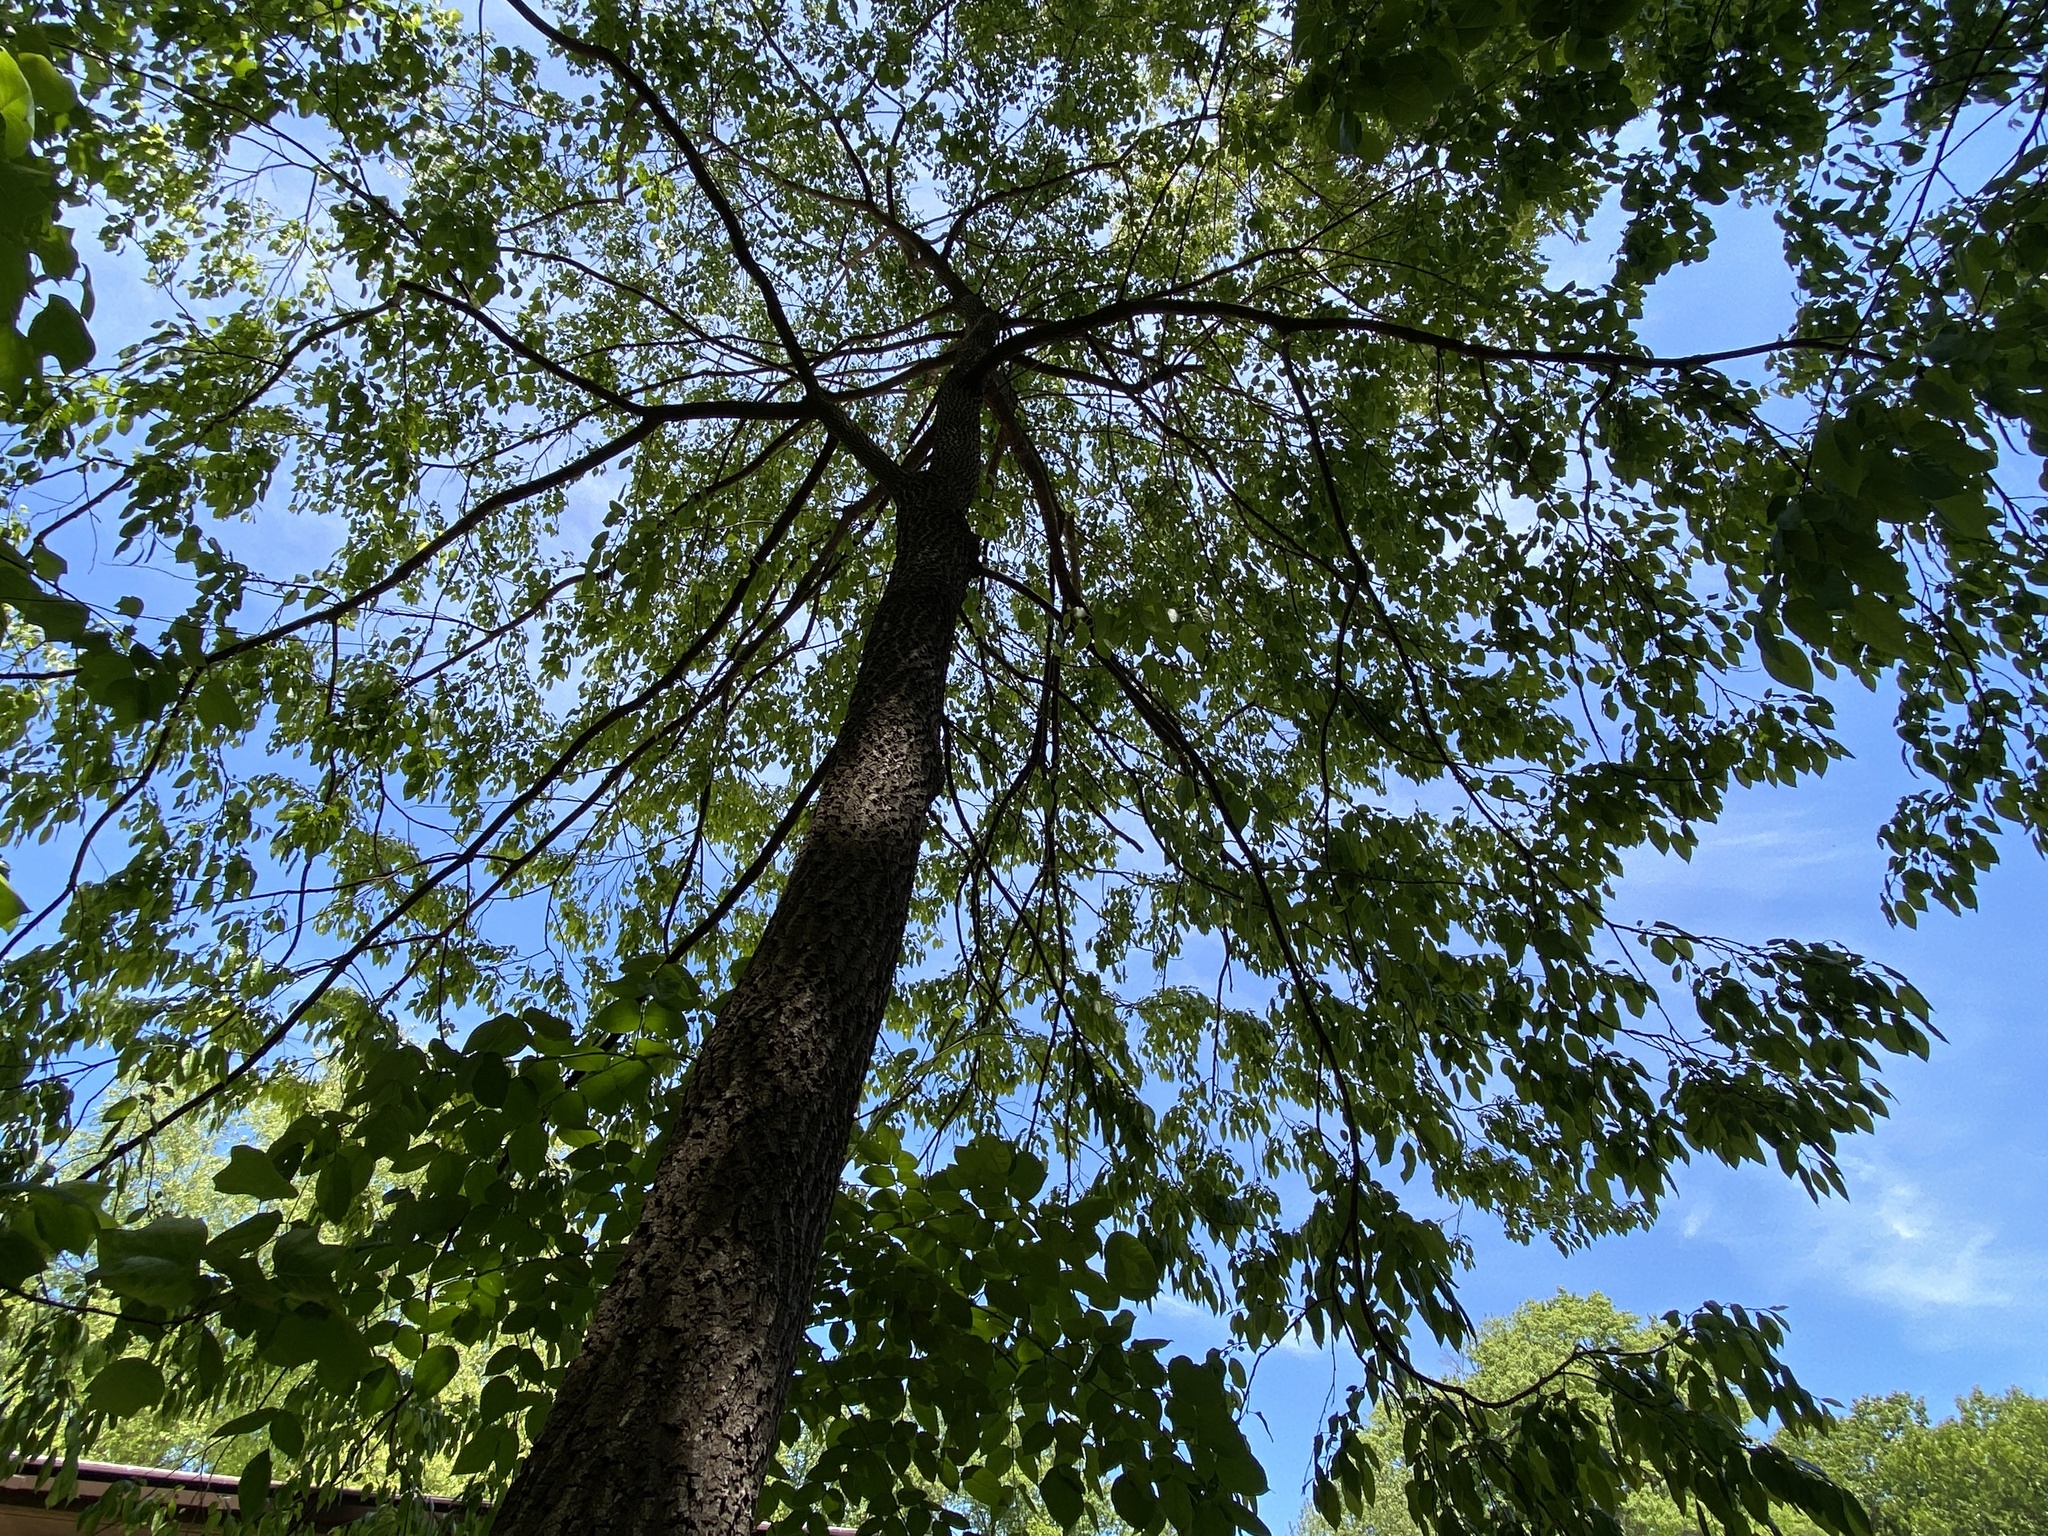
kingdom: Plantae
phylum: Tracheophyta
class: Magnoliopsida
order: Ericales
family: Ericaceae
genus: Oxydendrum
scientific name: Oxydendrum arboreum
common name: Sourwood
